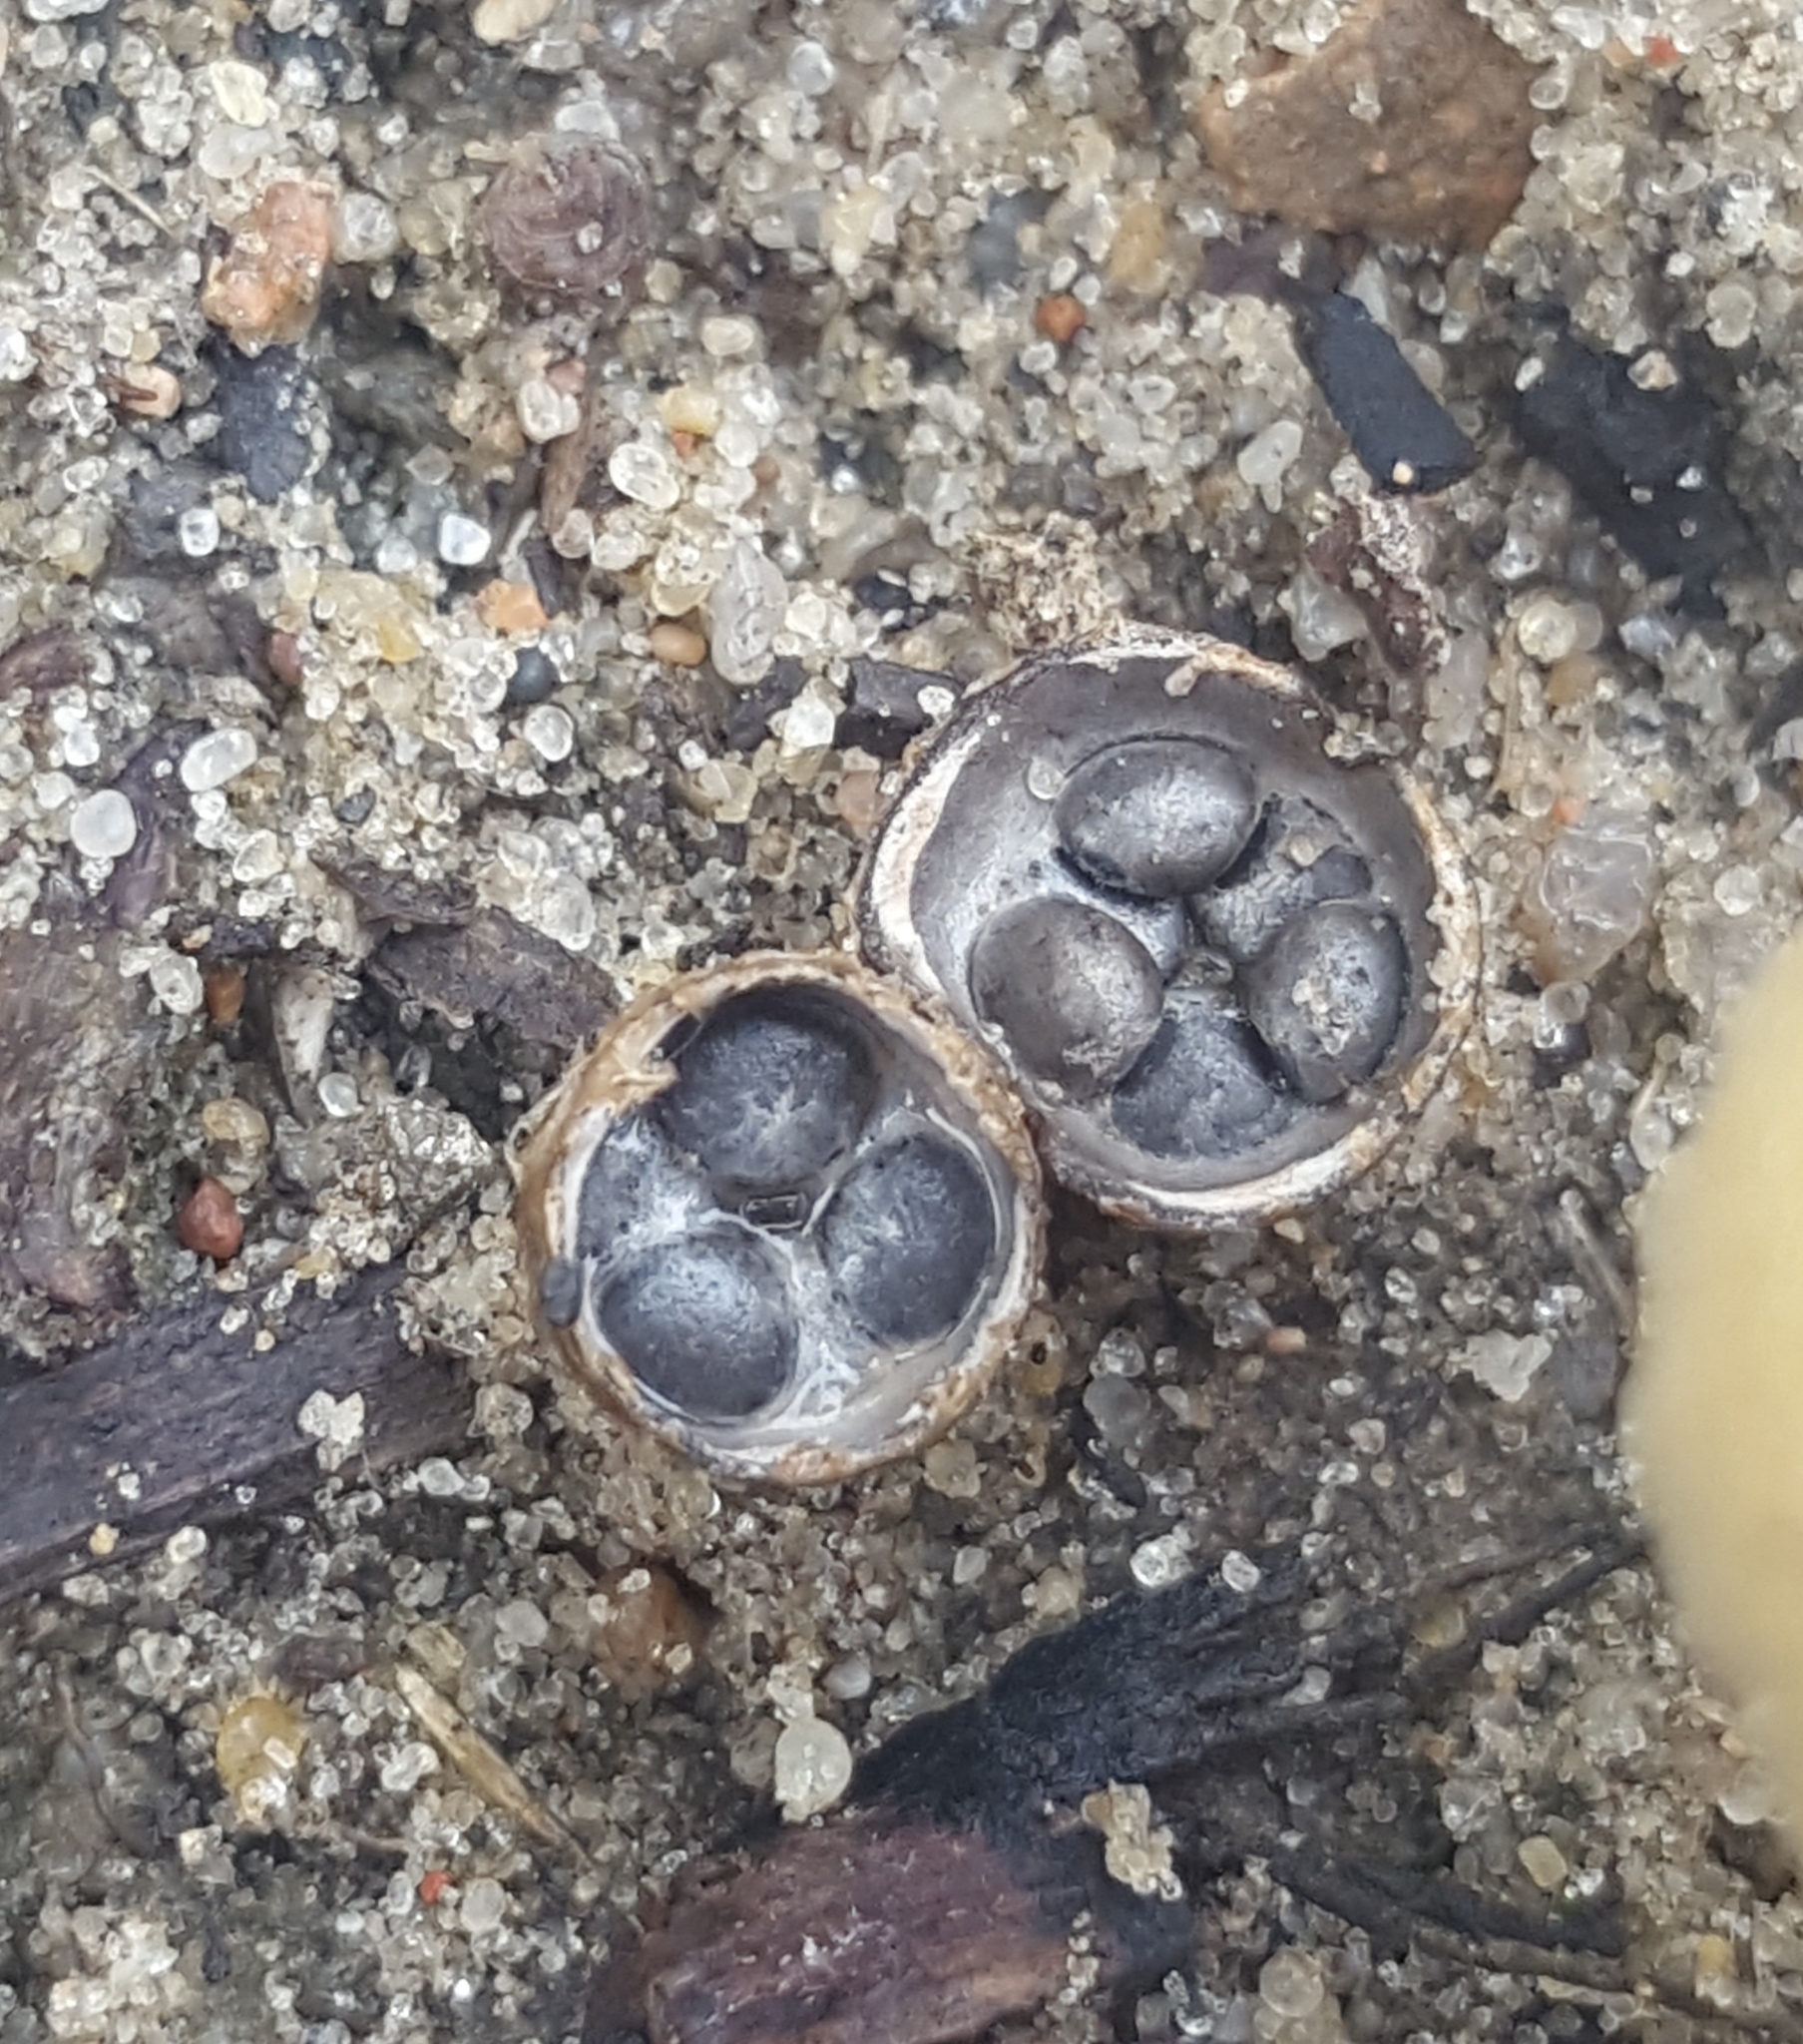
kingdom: Fungi
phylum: Basidiomycota
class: Agaricomycetes
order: Agaricales
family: Agaricaceae
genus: Cyathus
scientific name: Cyathus stercoreus
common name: Dung bird's nest
